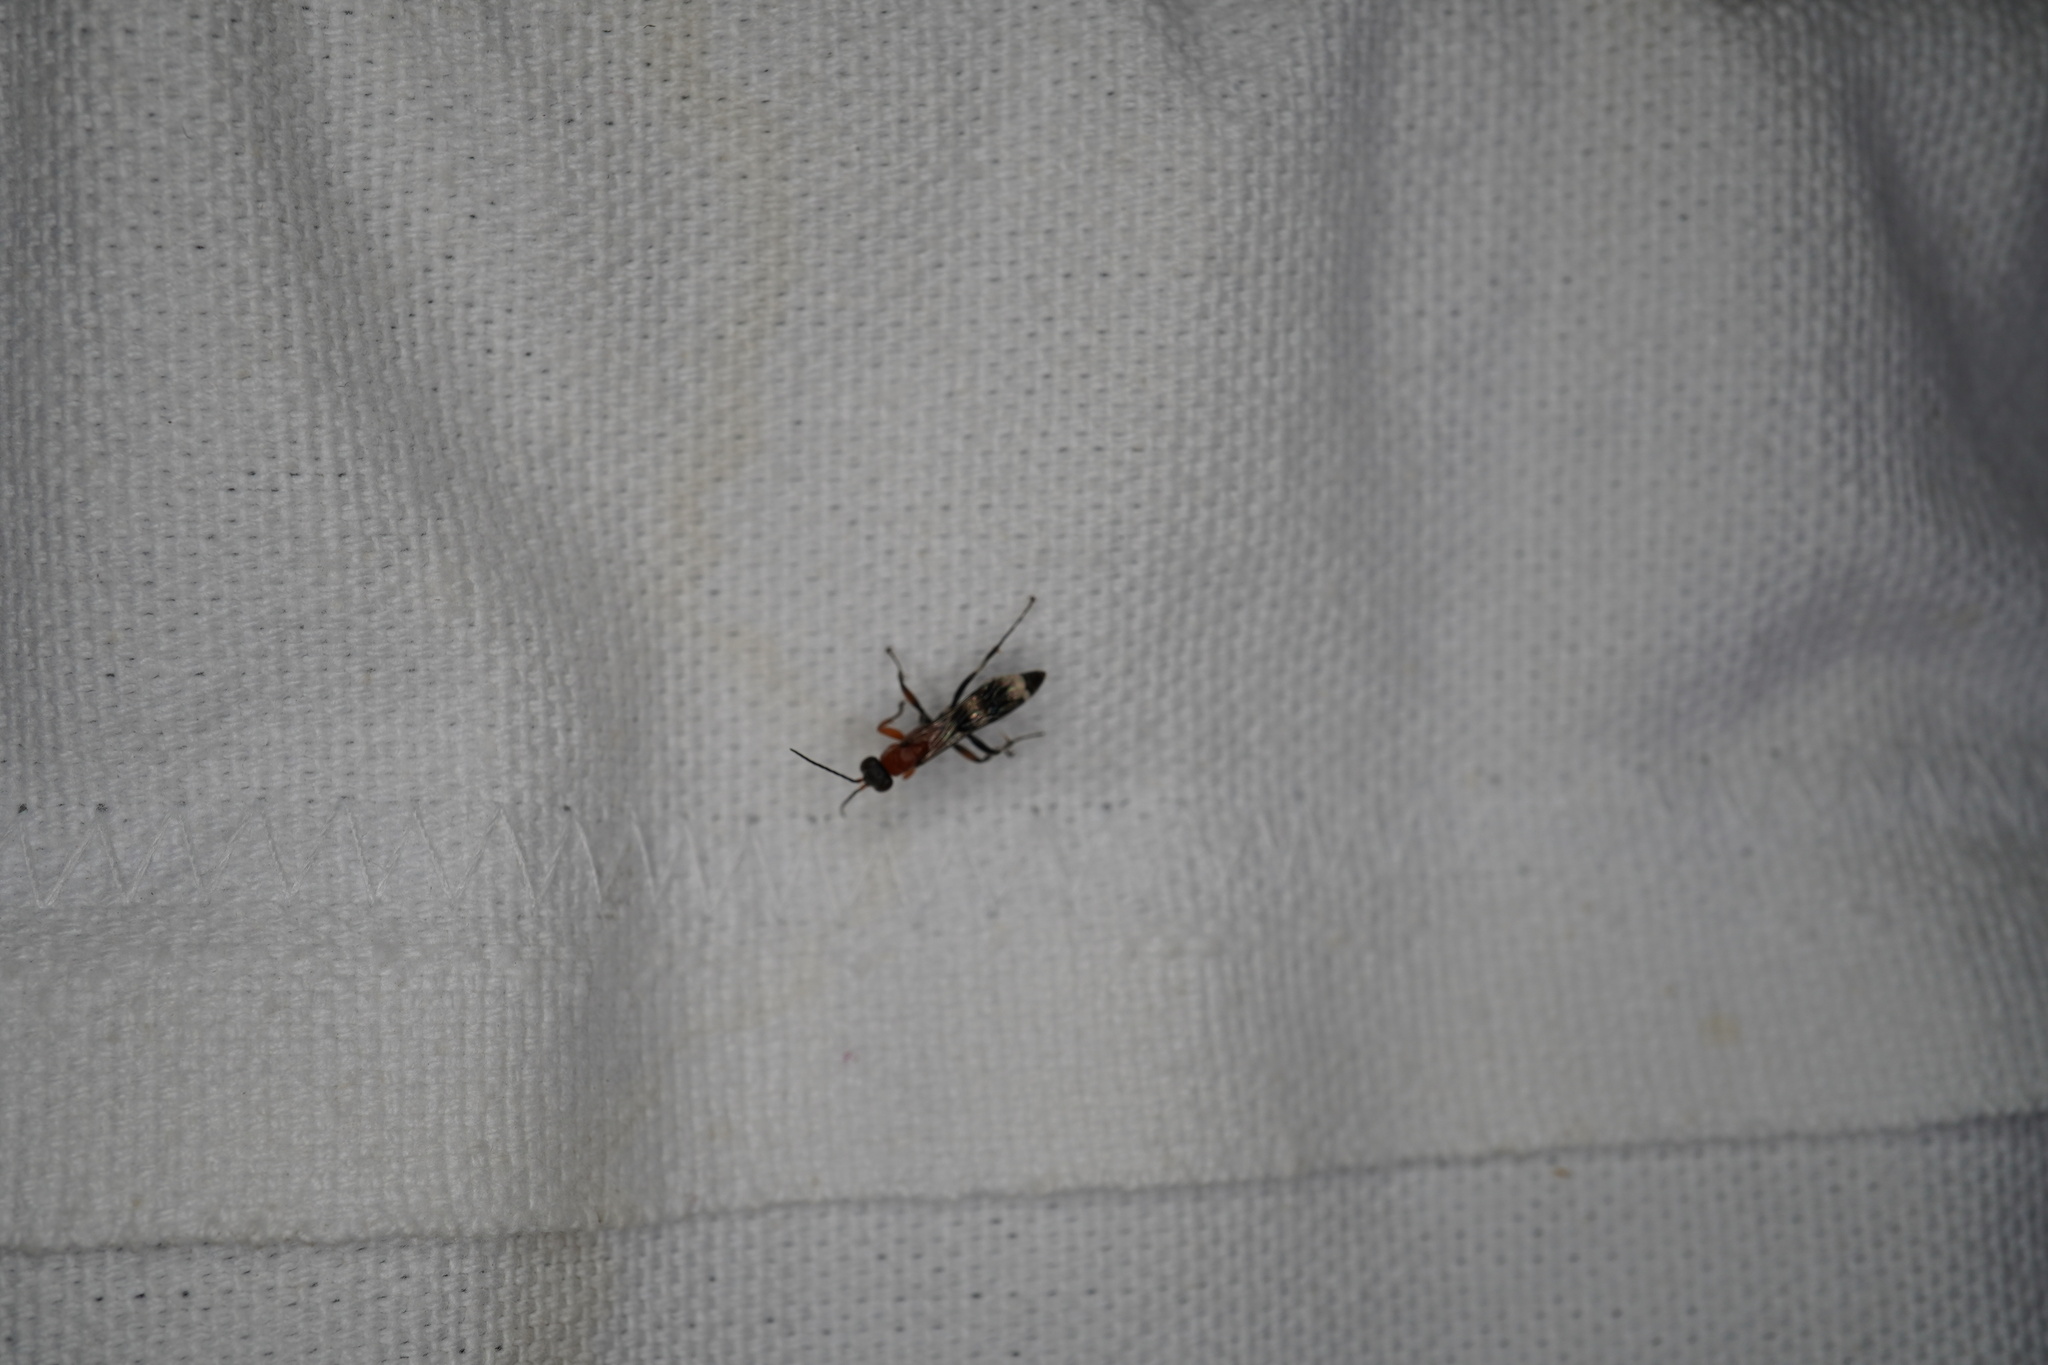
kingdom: Animalia
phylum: Arthropoda
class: Insecta
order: Hymenoptera
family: Pompilidae
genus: Psorthaspis
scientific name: Psorthaspis legata
